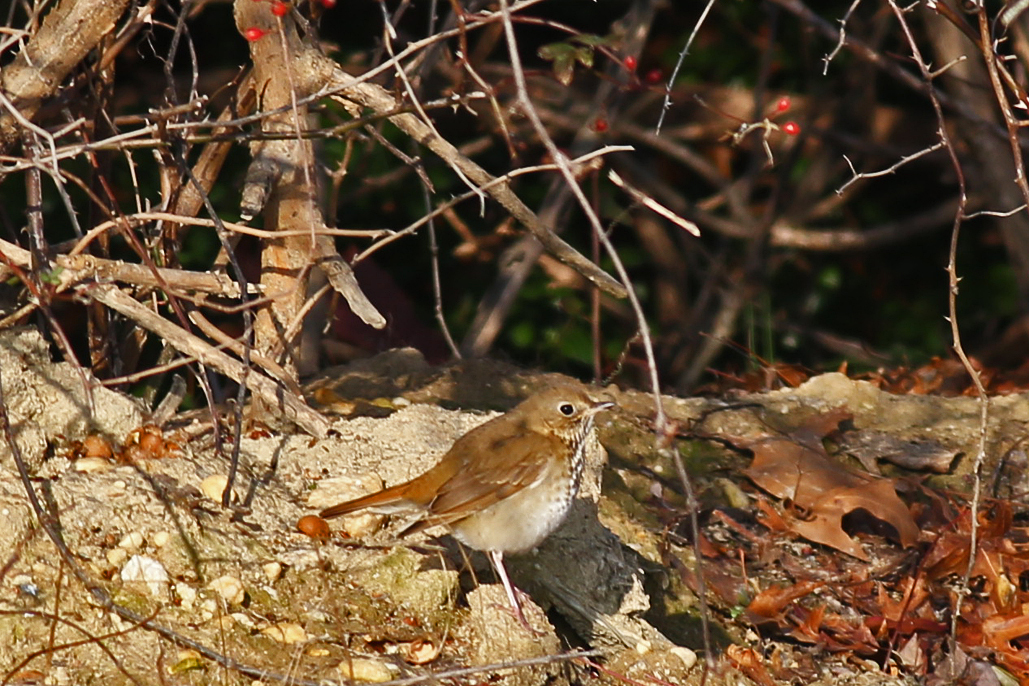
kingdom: Animalia
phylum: Chordata
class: Aves
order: Passeriformes
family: Turdidae
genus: Catharus
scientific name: Catharus guttatus
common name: Hermit thrush
